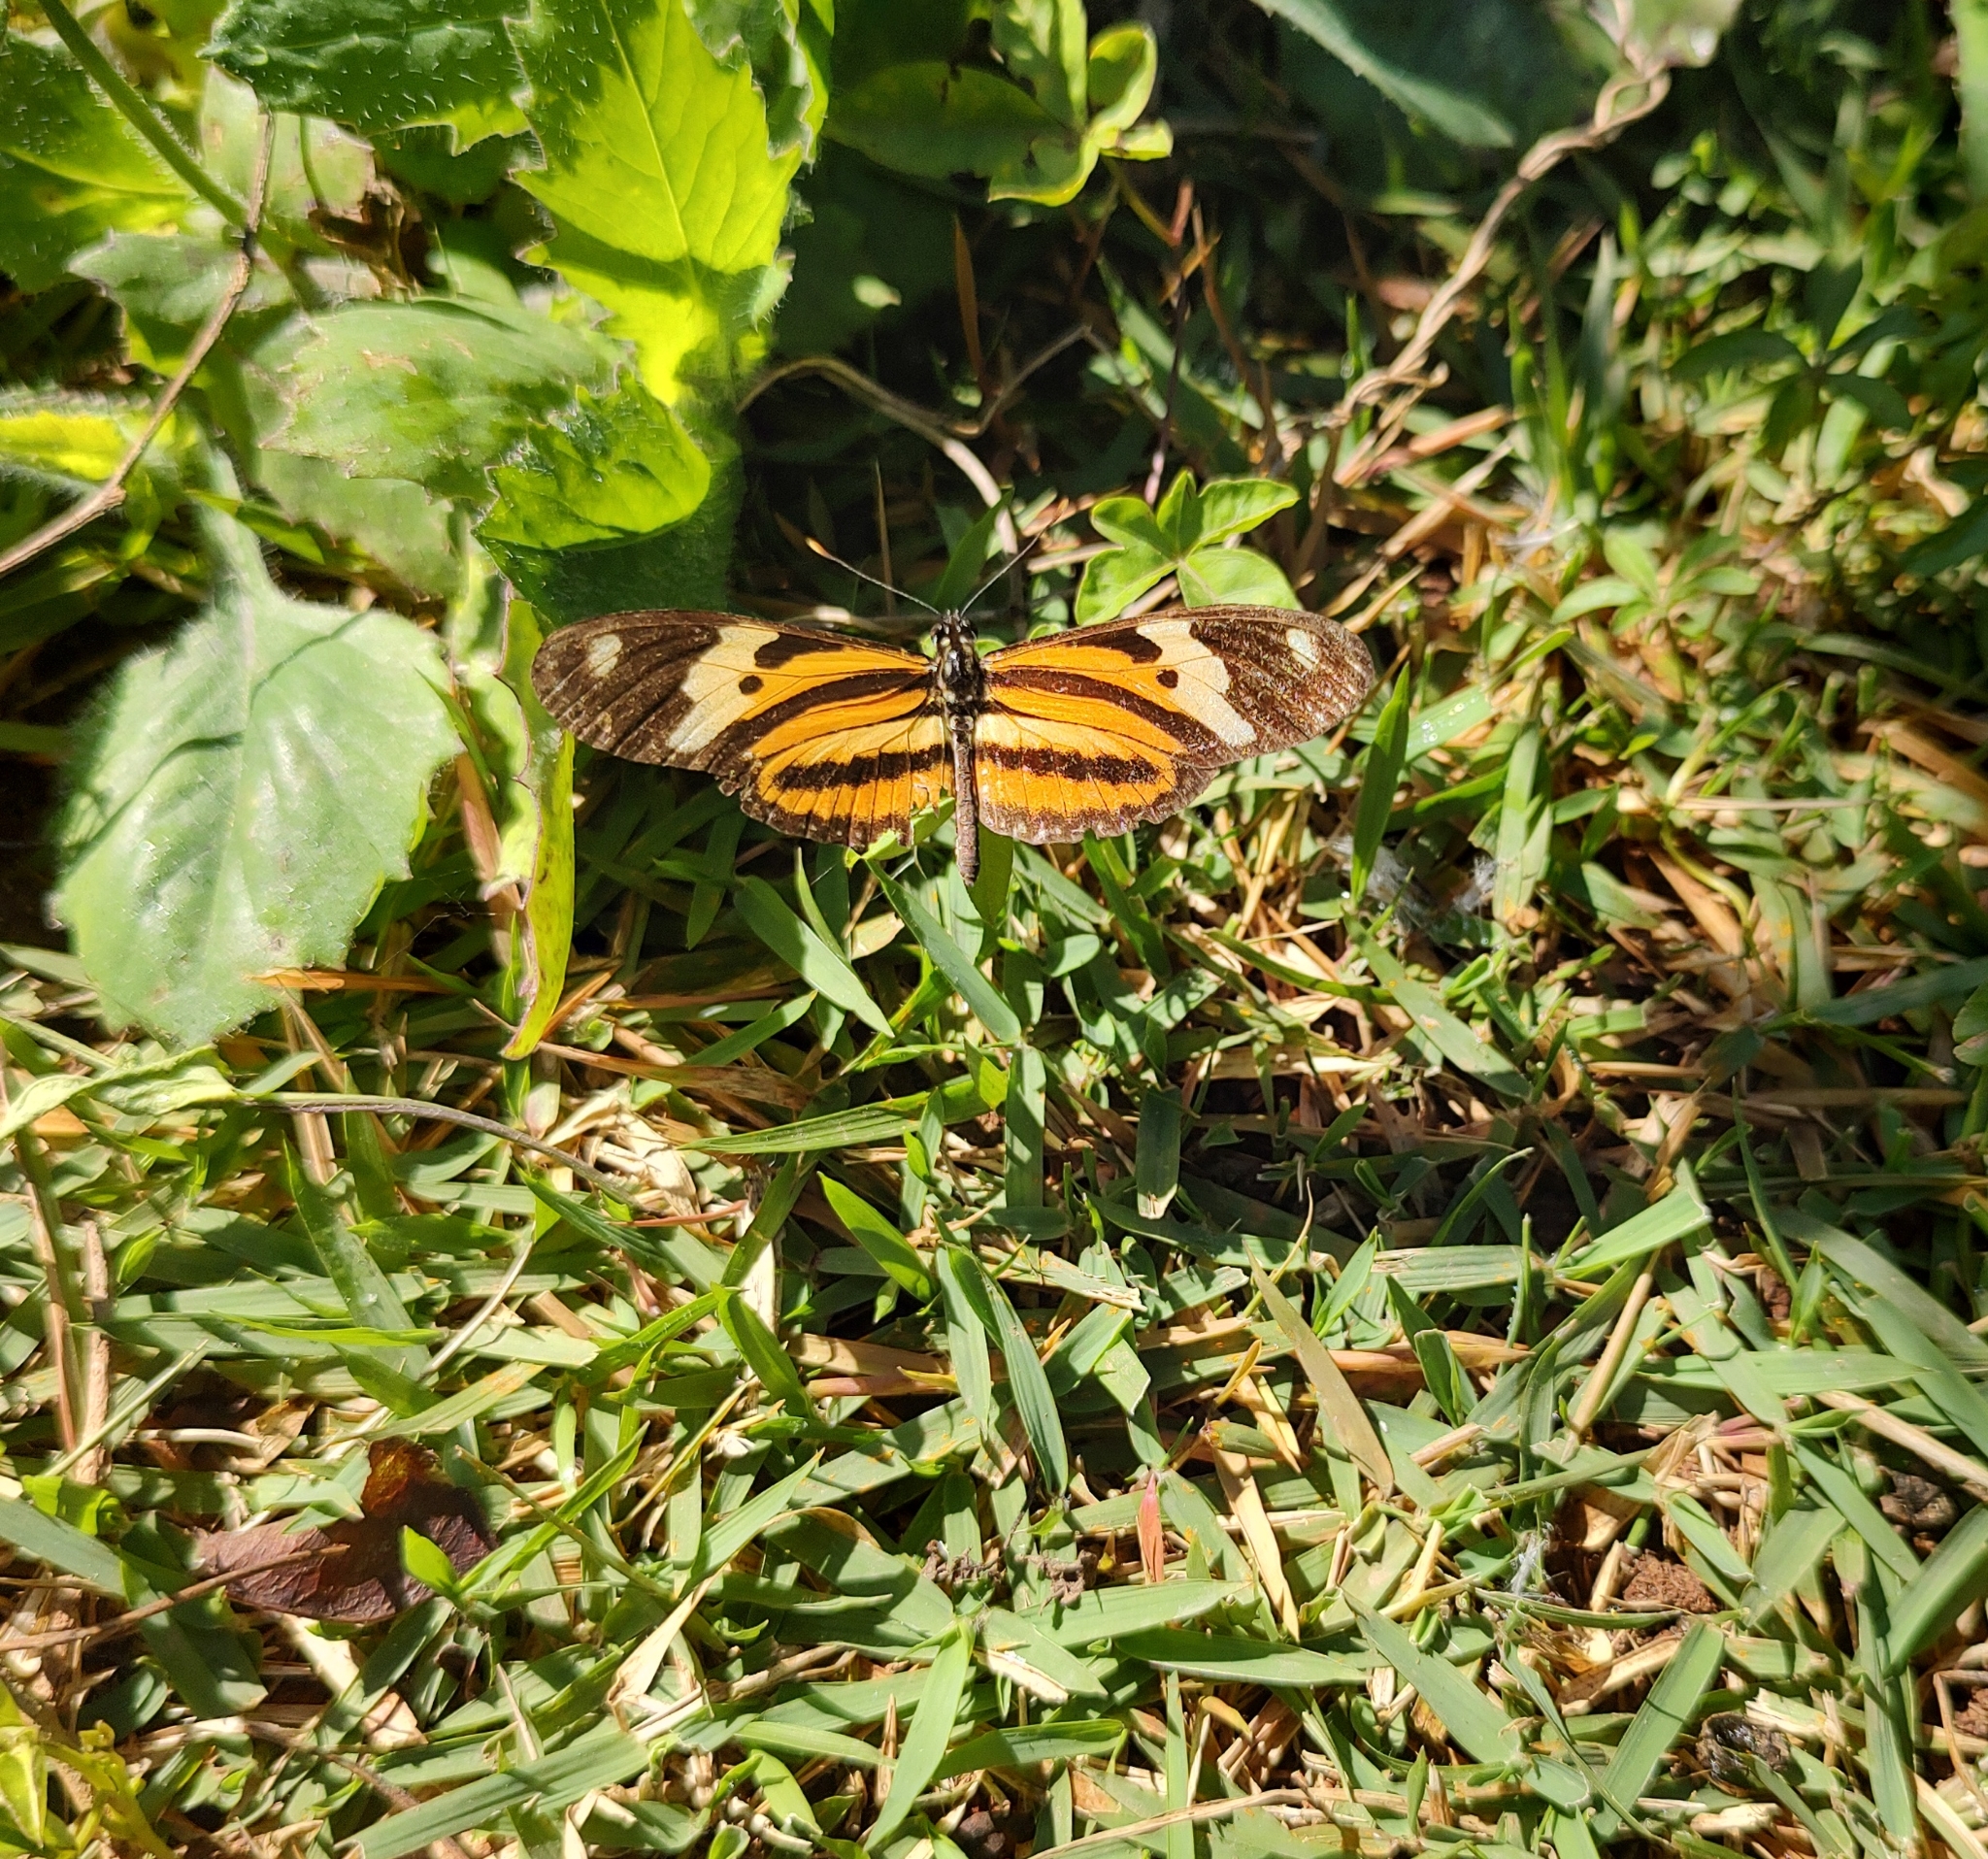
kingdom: Animalia
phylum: Arthropoda
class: Insecta
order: Lepidoptera
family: Nymphalidae
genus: Eueides
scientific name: Eueides isabella
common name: Isabella's longwing
